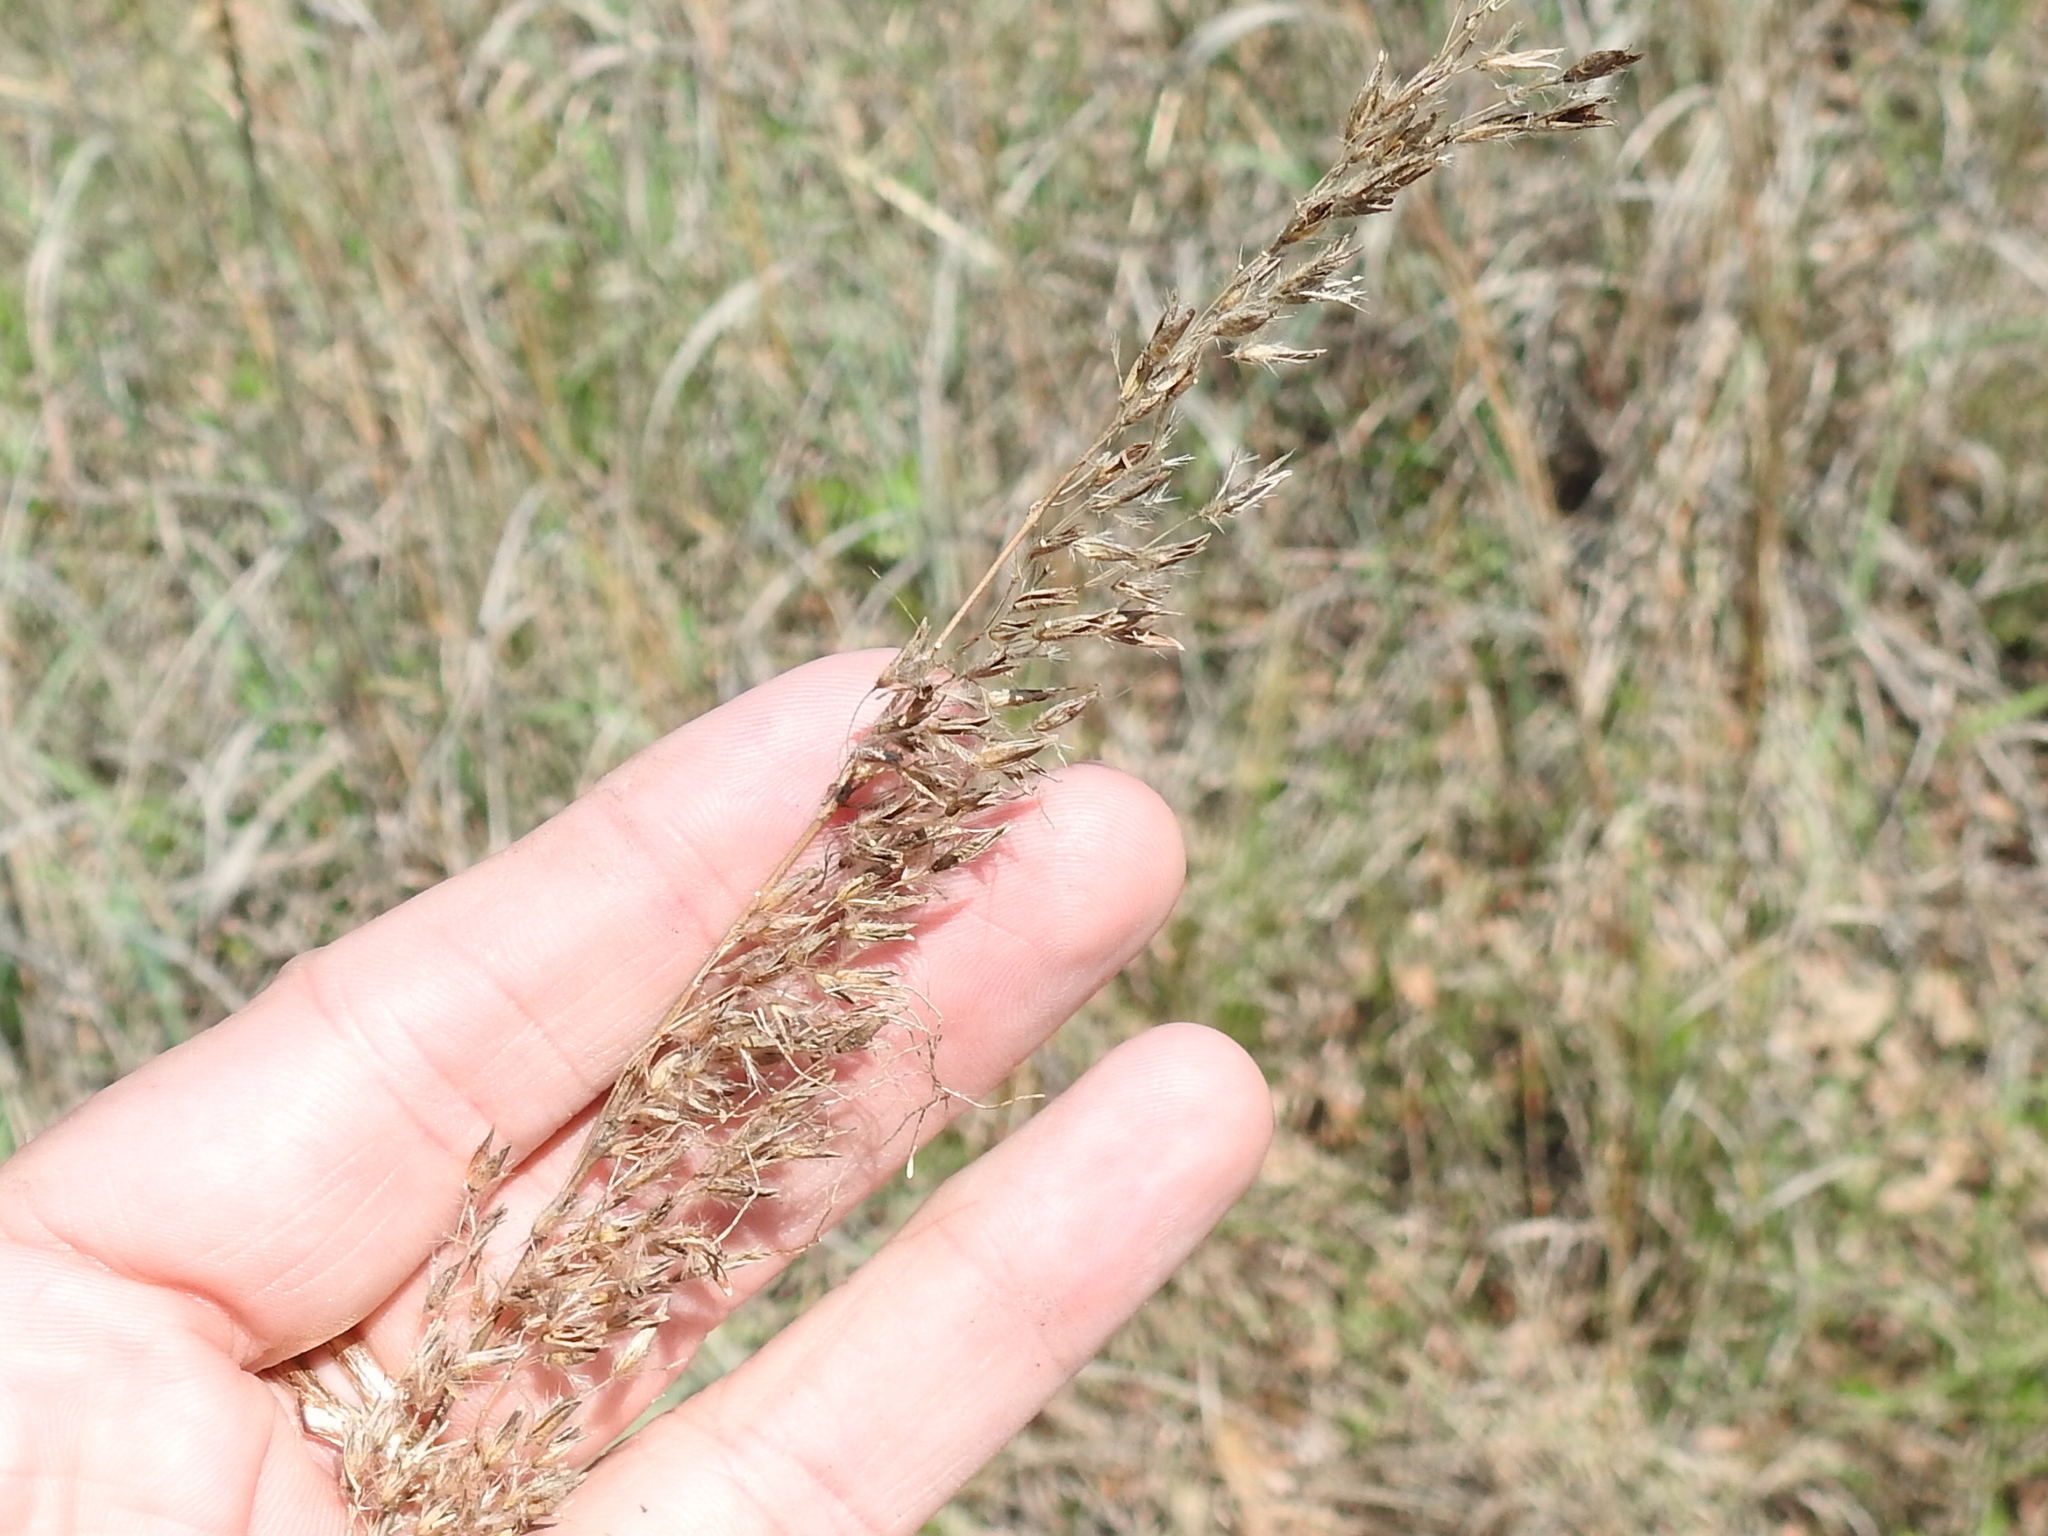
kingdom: Plantae
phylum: Tracheophyta
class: Liliopsida
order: Poales
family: Poaceae
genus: Sorghastrum
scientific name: Sorghastrum nutans
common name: Indian grass
